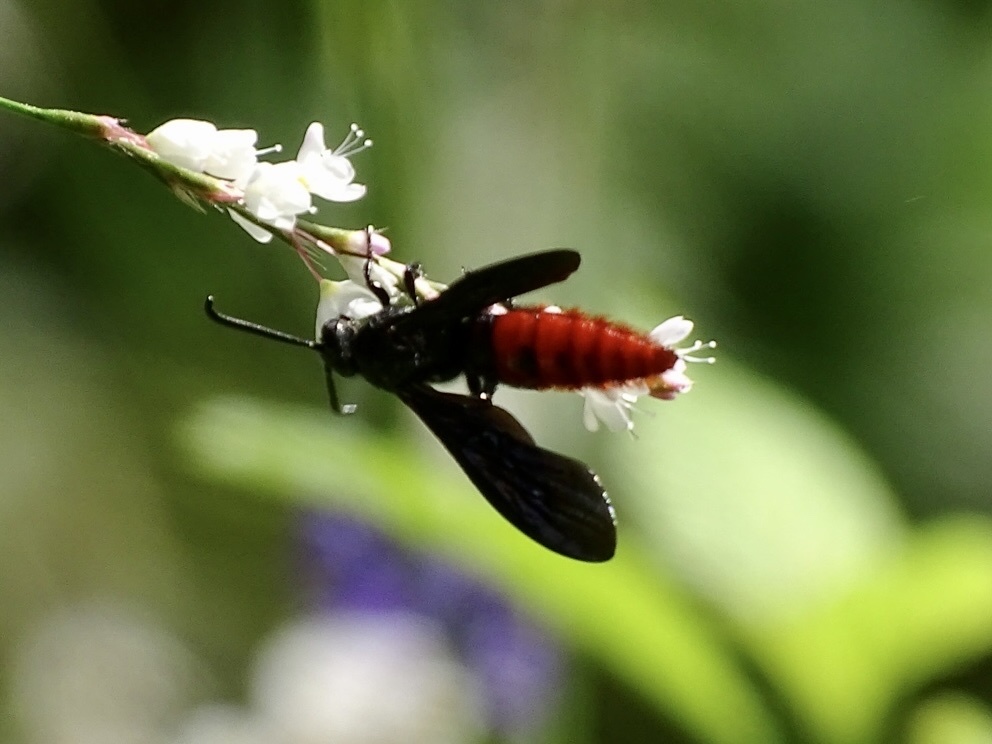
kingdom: Animalia
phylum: Arthropoda
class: Insecta
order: Hymenoptera
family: Scoliidae
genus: Liacos
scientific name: Liacos erythrosoma
